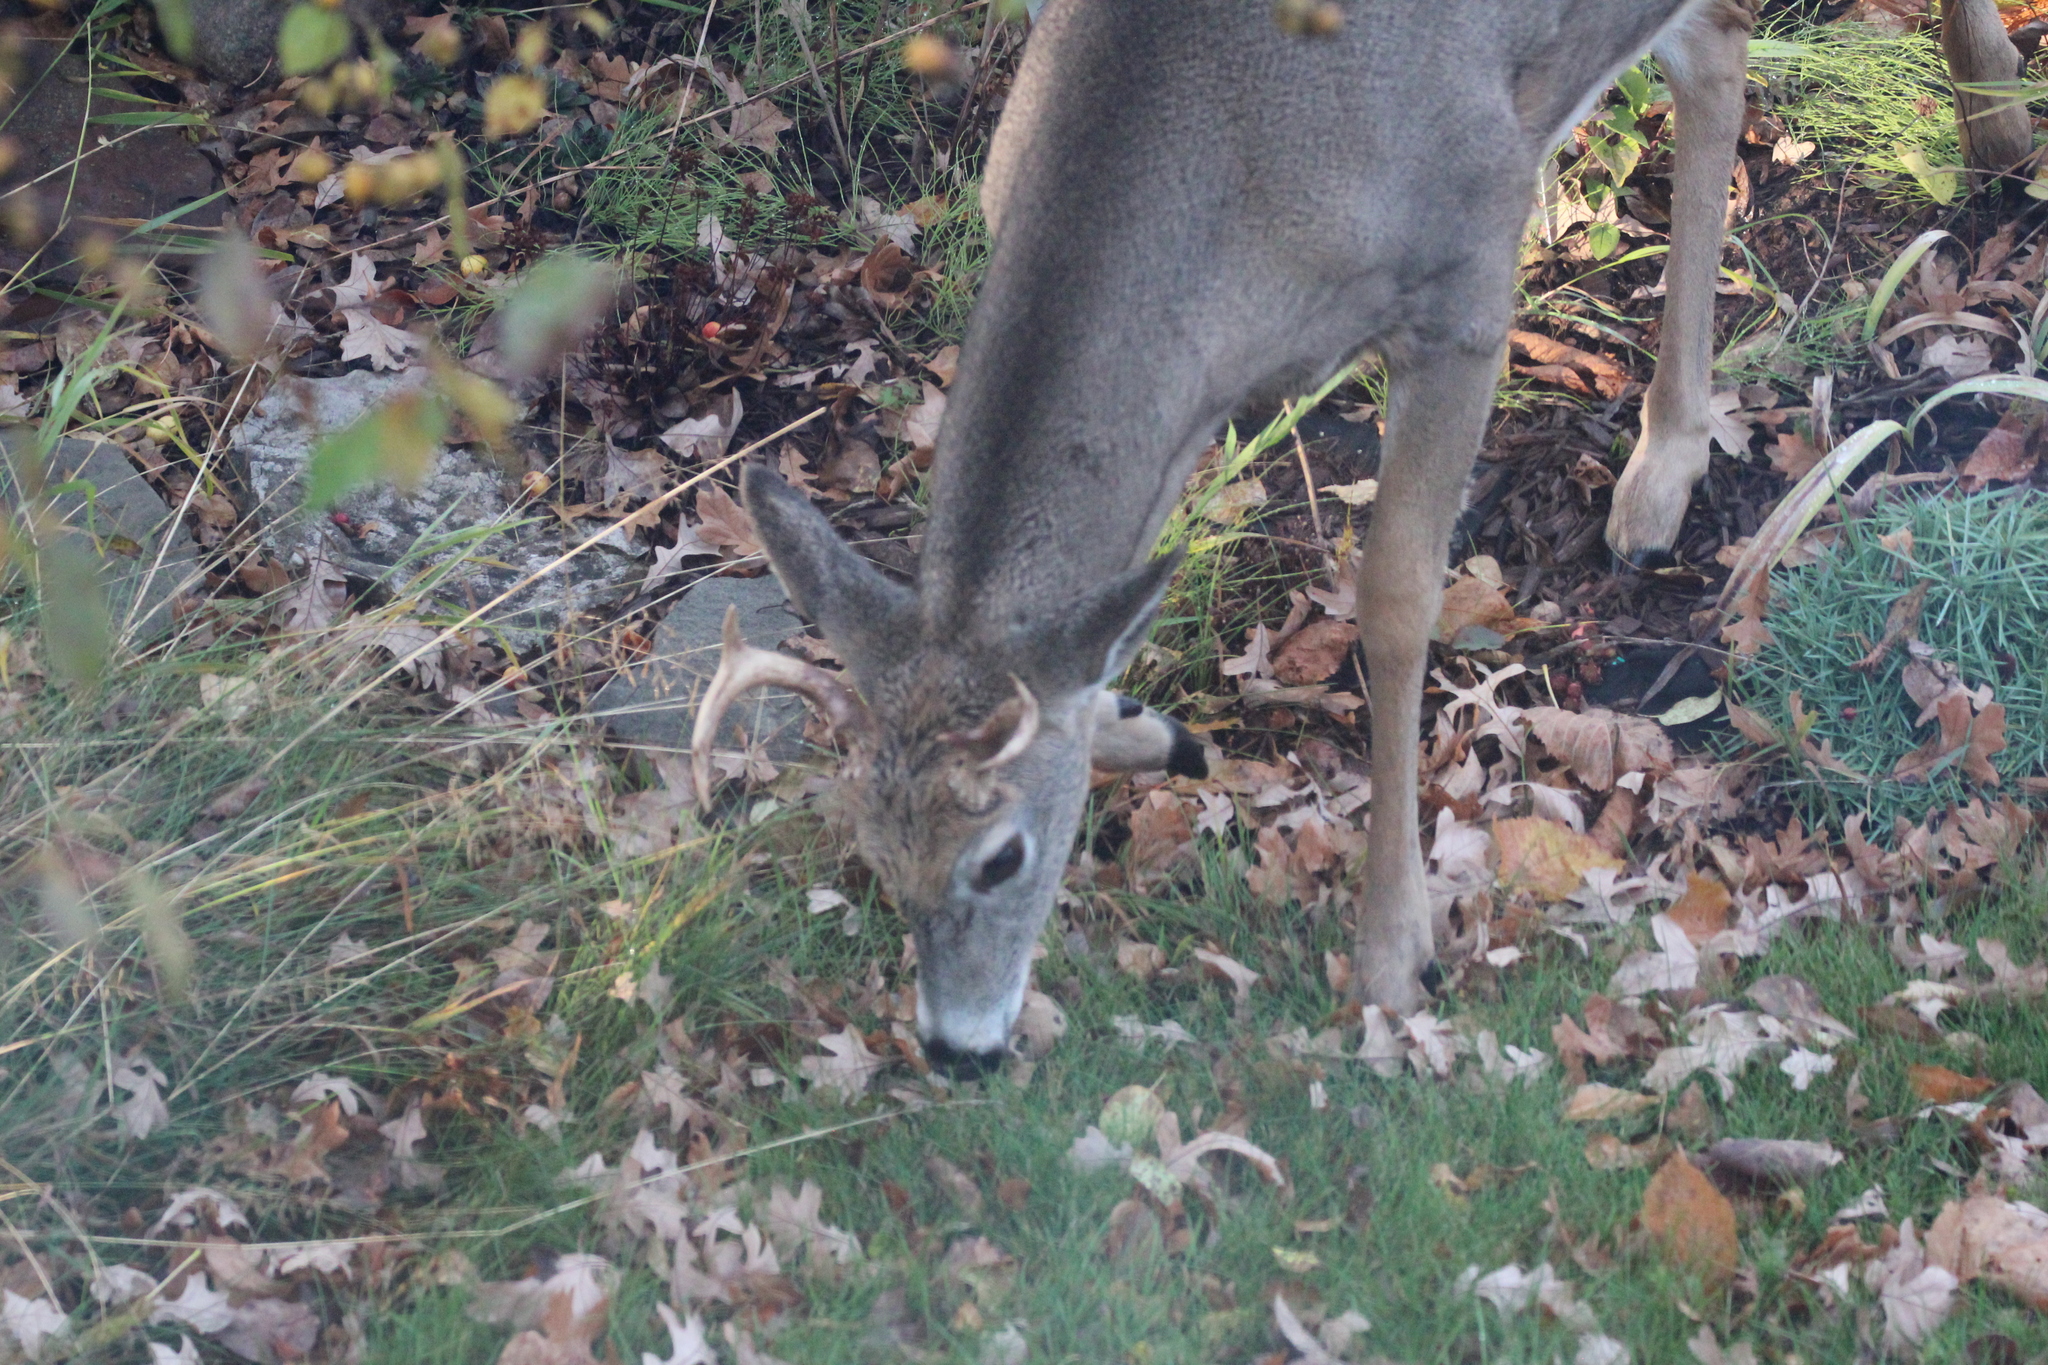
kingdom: Animalia
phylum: Chordata
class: Mammalia
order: Artiodactyla
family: Cervidae
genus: Odocoileus
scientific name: Odocoileus virginianus
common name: White-tailed deer
